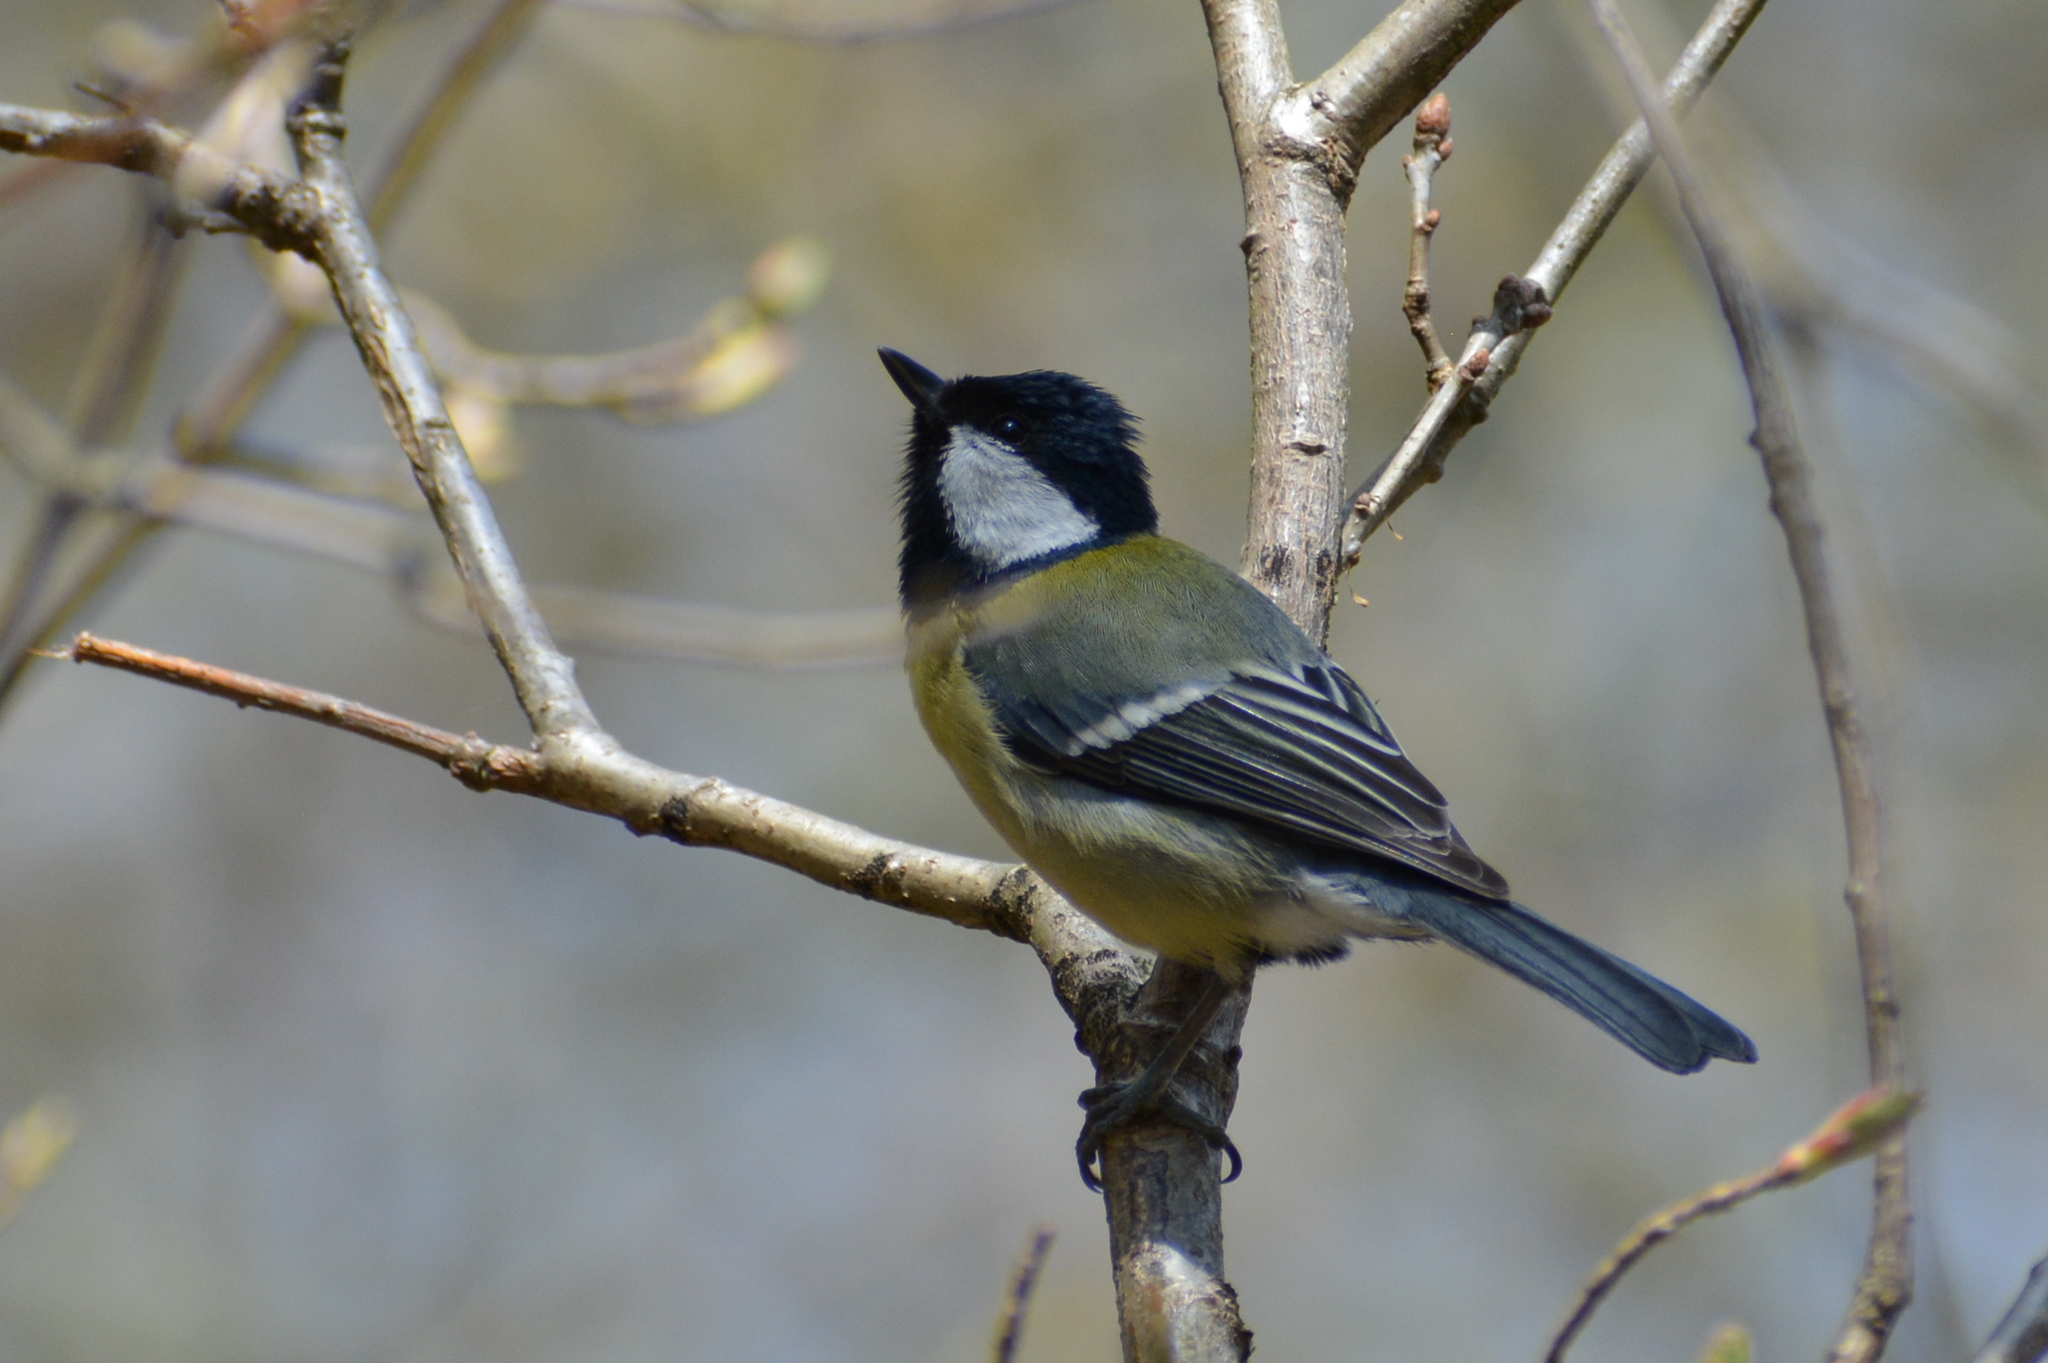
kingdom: Animalia
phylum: Chordata
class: Aves
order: Passeriformes
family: Paridae
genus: Parus
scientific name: Parus major
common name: Great tit
